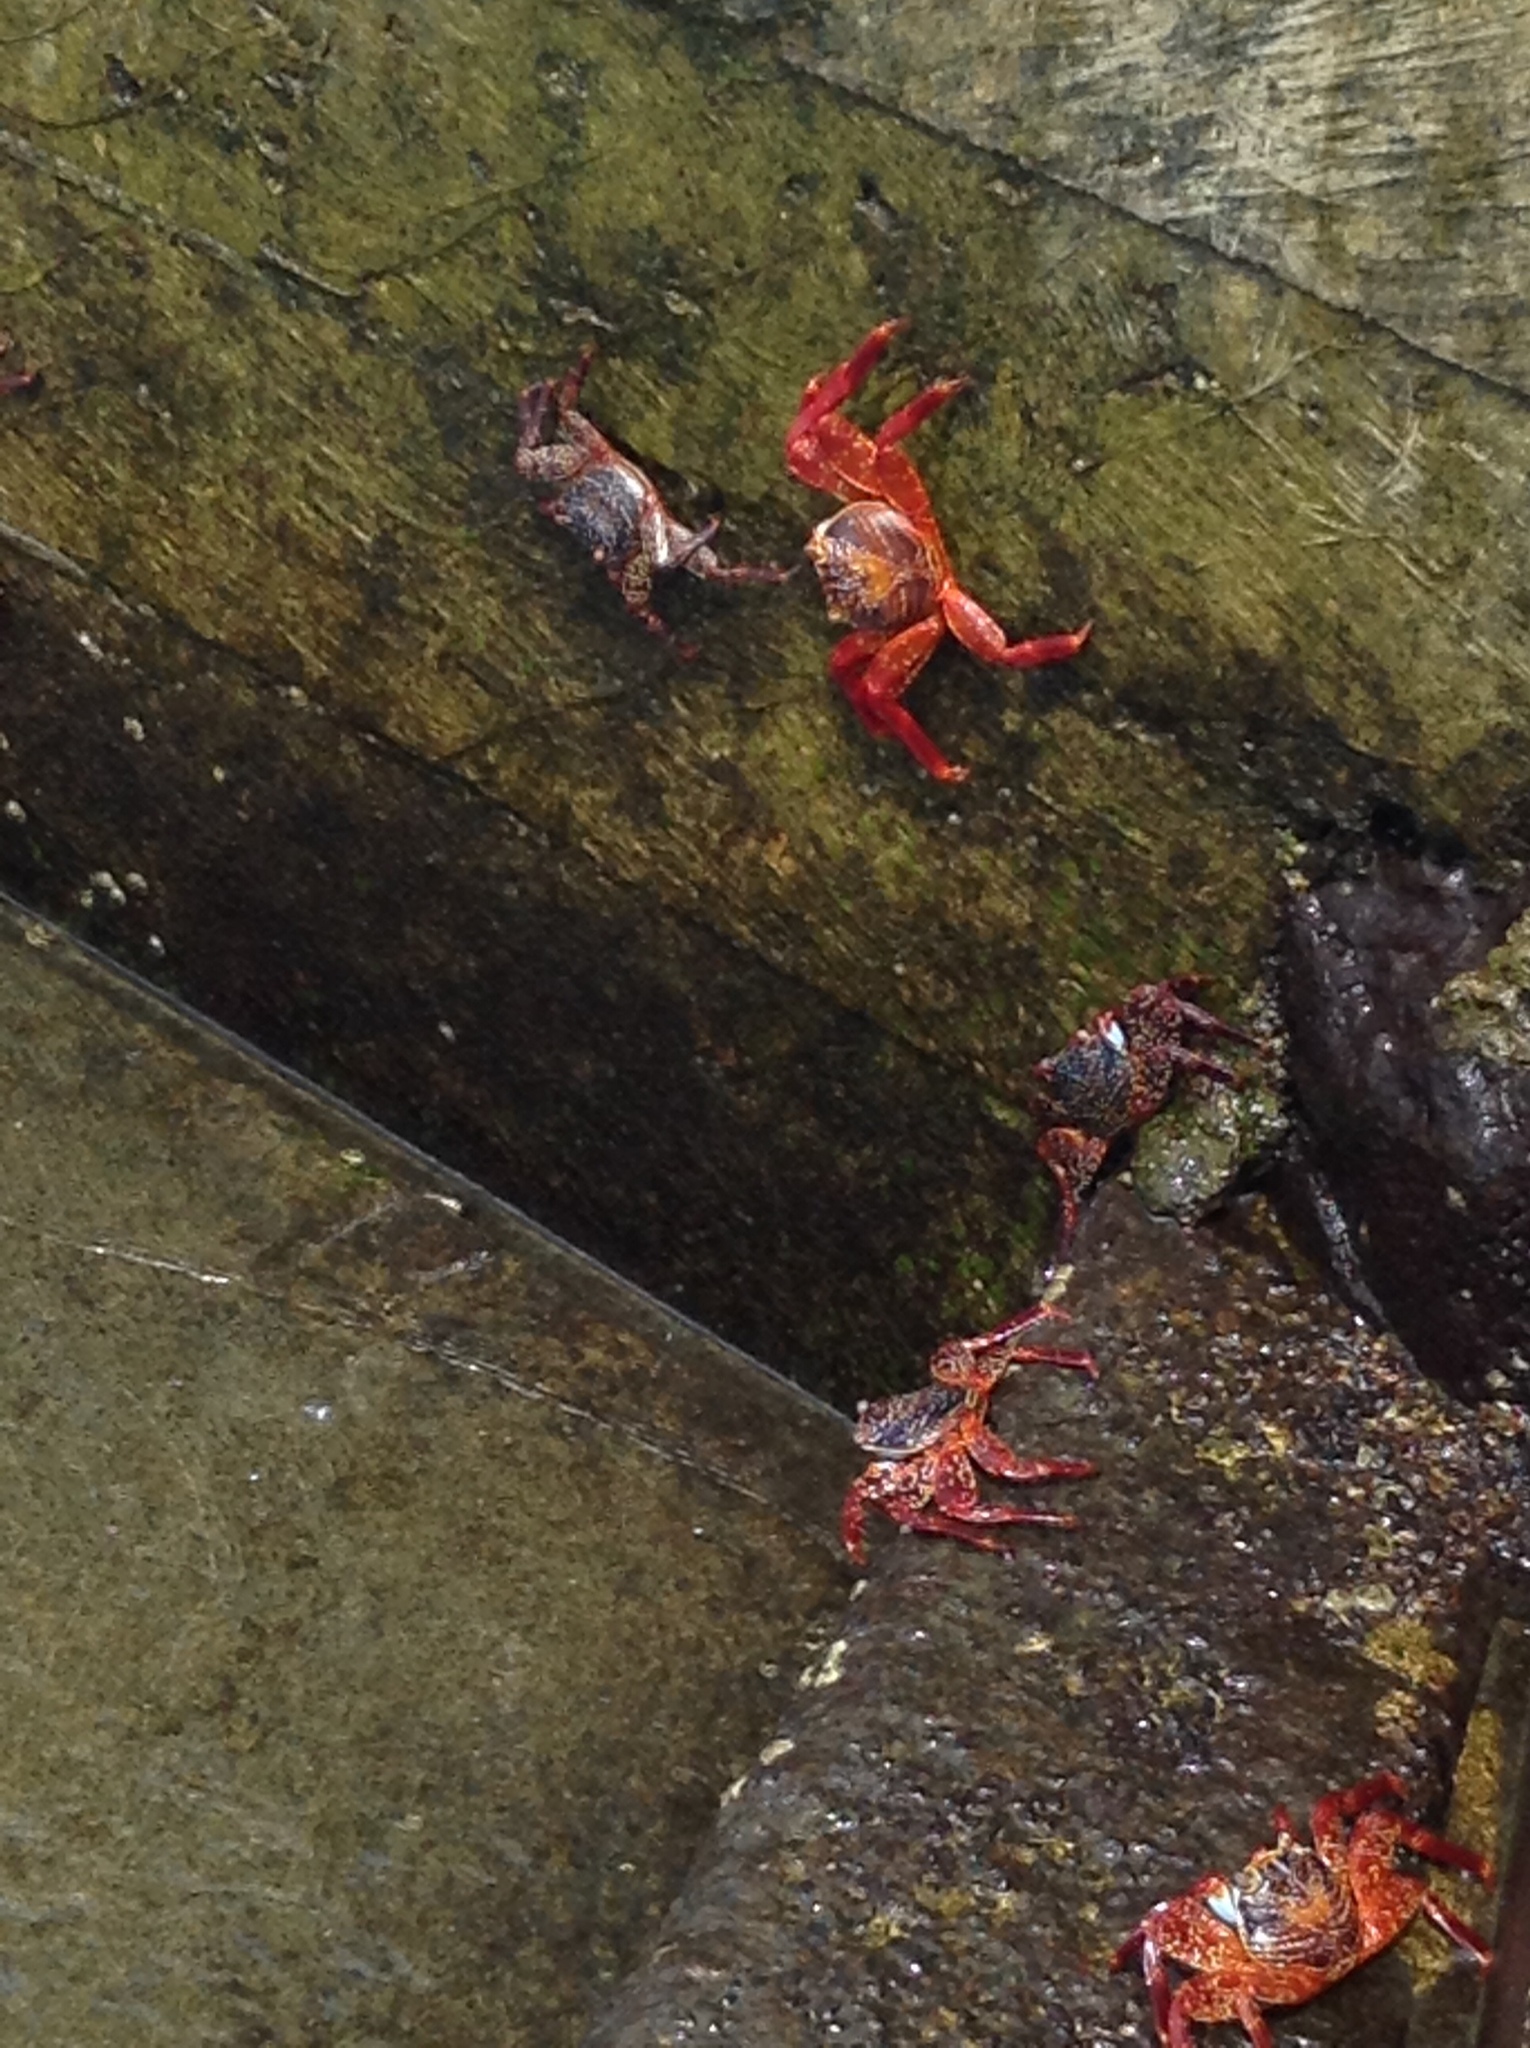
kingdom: Animalia
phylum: Arthropoda
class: Malacostraca
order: Decapoda
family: Grapsidae
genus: Grapsus
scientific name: Grapsus grapsus
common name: Sally lightfoot
